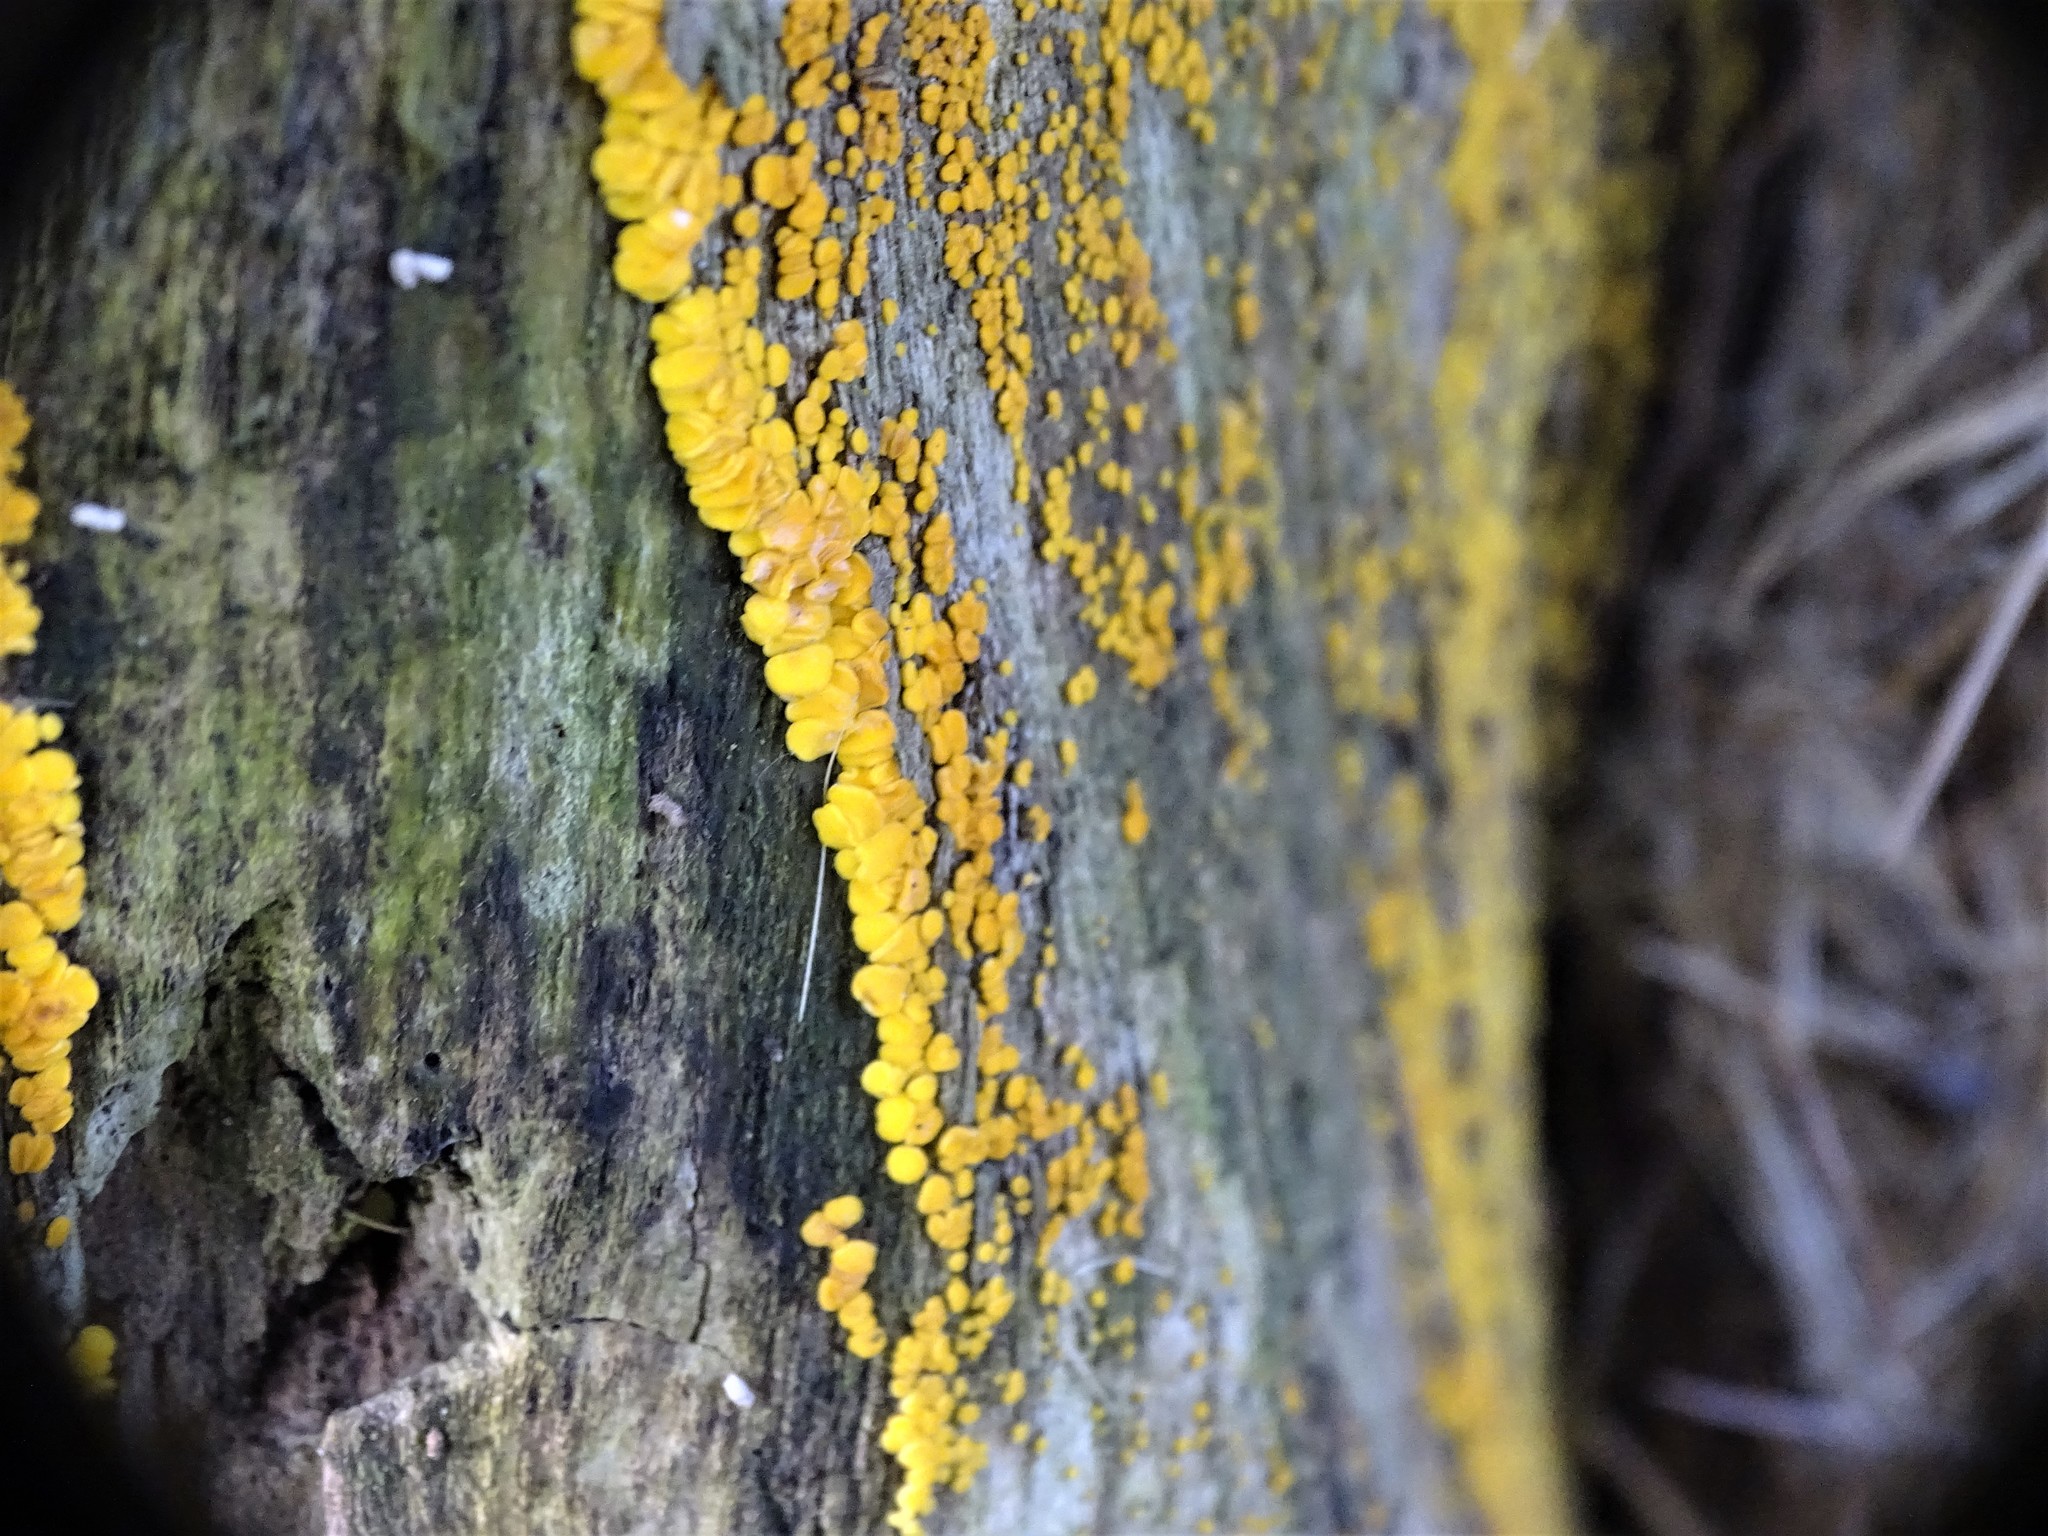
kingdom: Fungi
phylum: Ascomycota
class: Leotiomycetes
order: Helotiales
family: Pezizellaceae
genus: Calycina
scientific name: Calycina citrina
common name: Yellow fairy cups
